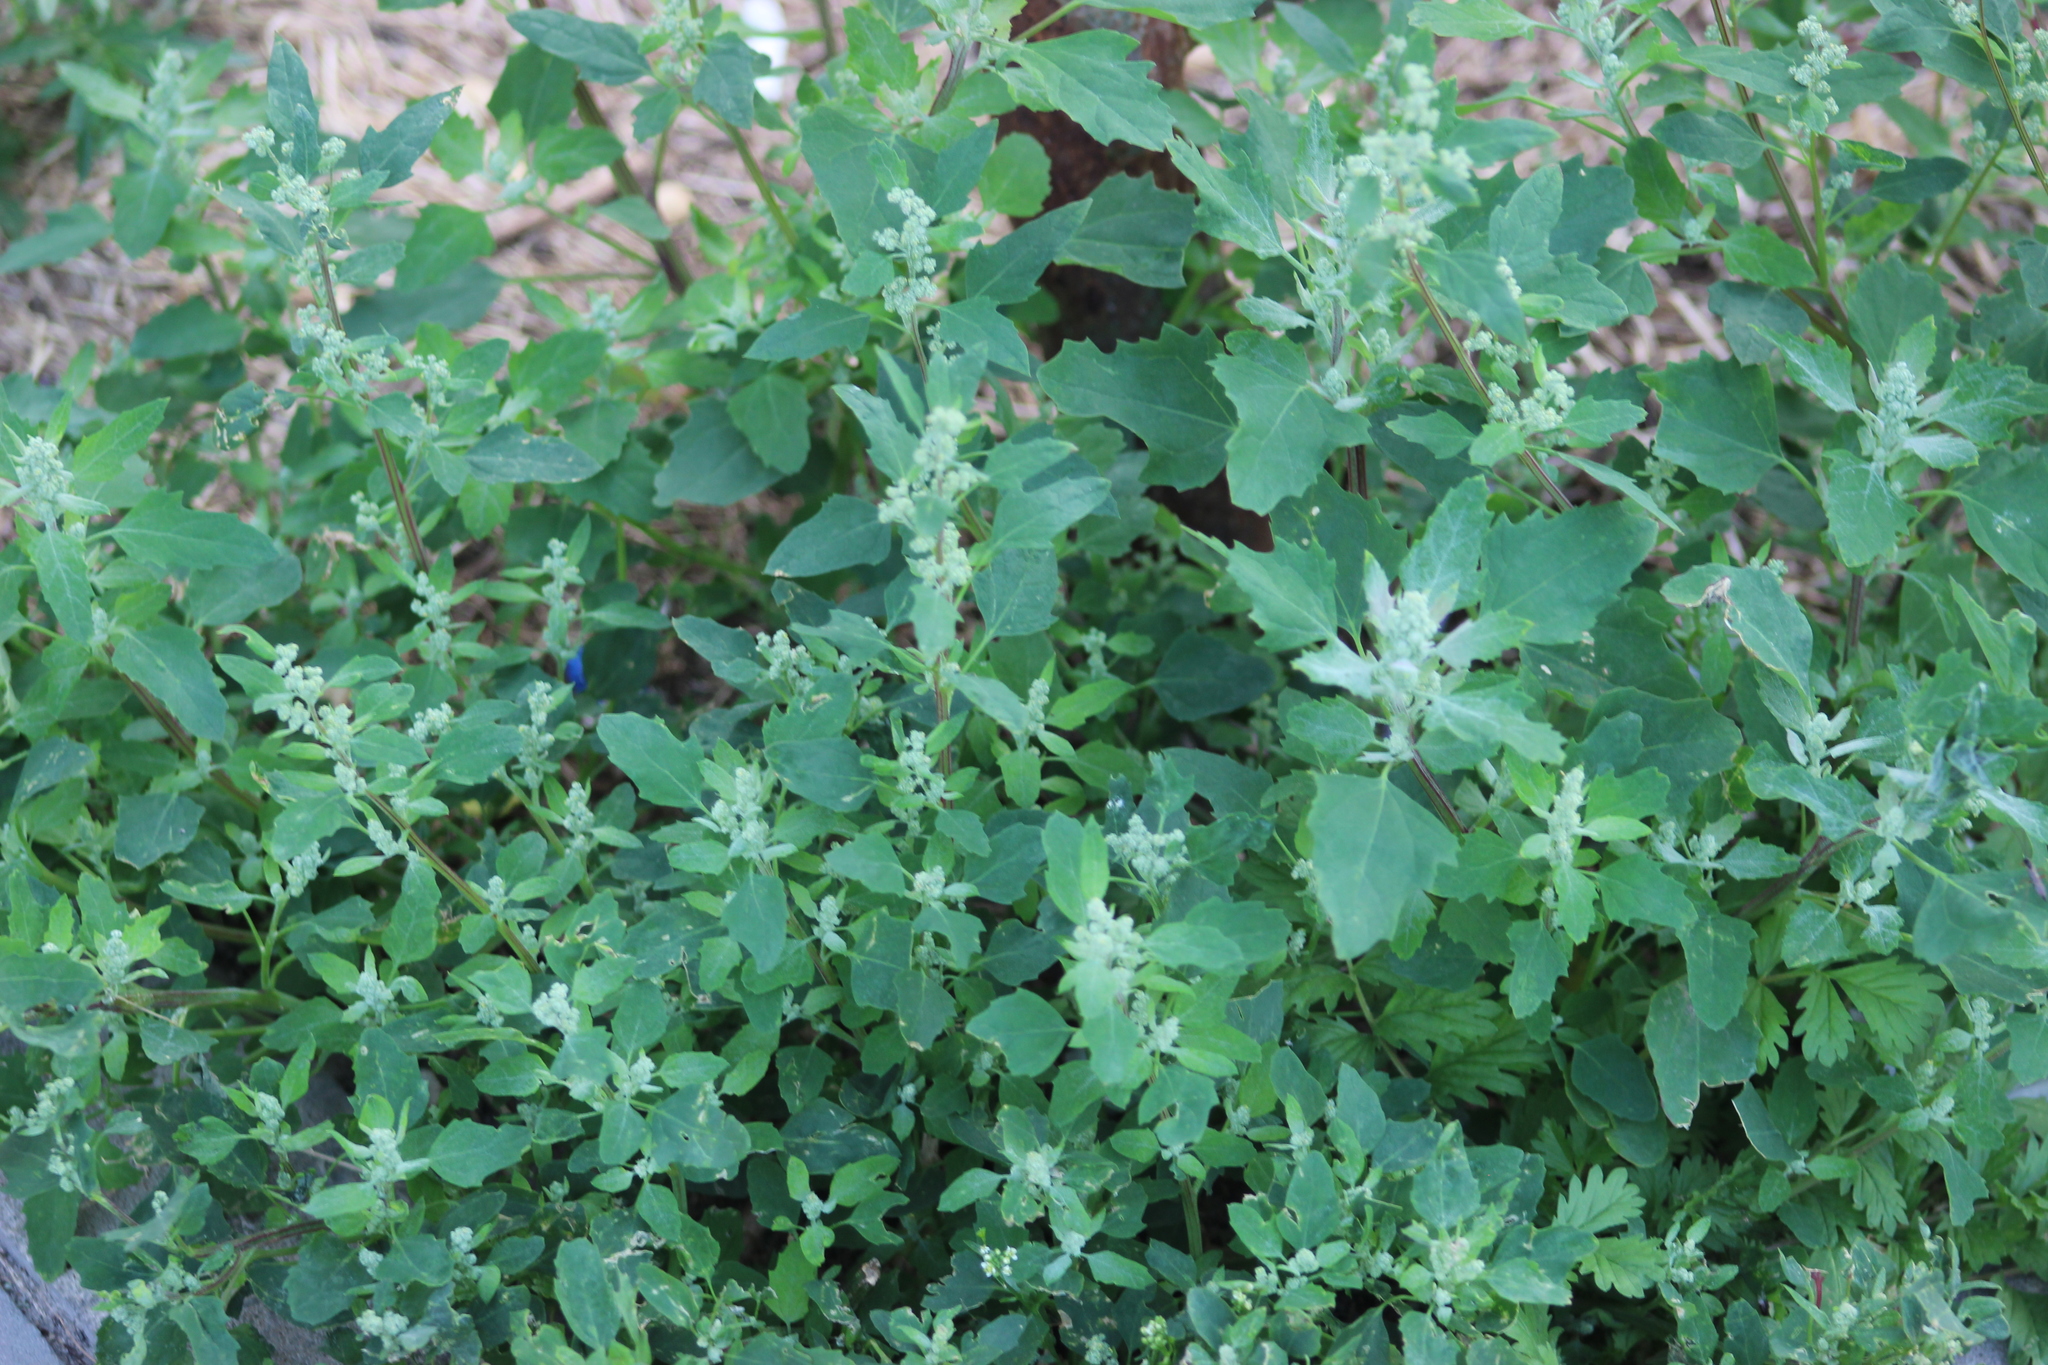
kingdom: Plantae
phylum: Tracheophyta
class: Magnoliopsida
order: Caryophyllales
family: Amaranthaceae
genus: Chenopodium
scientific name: Chenopodium album
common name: Fat-hen
